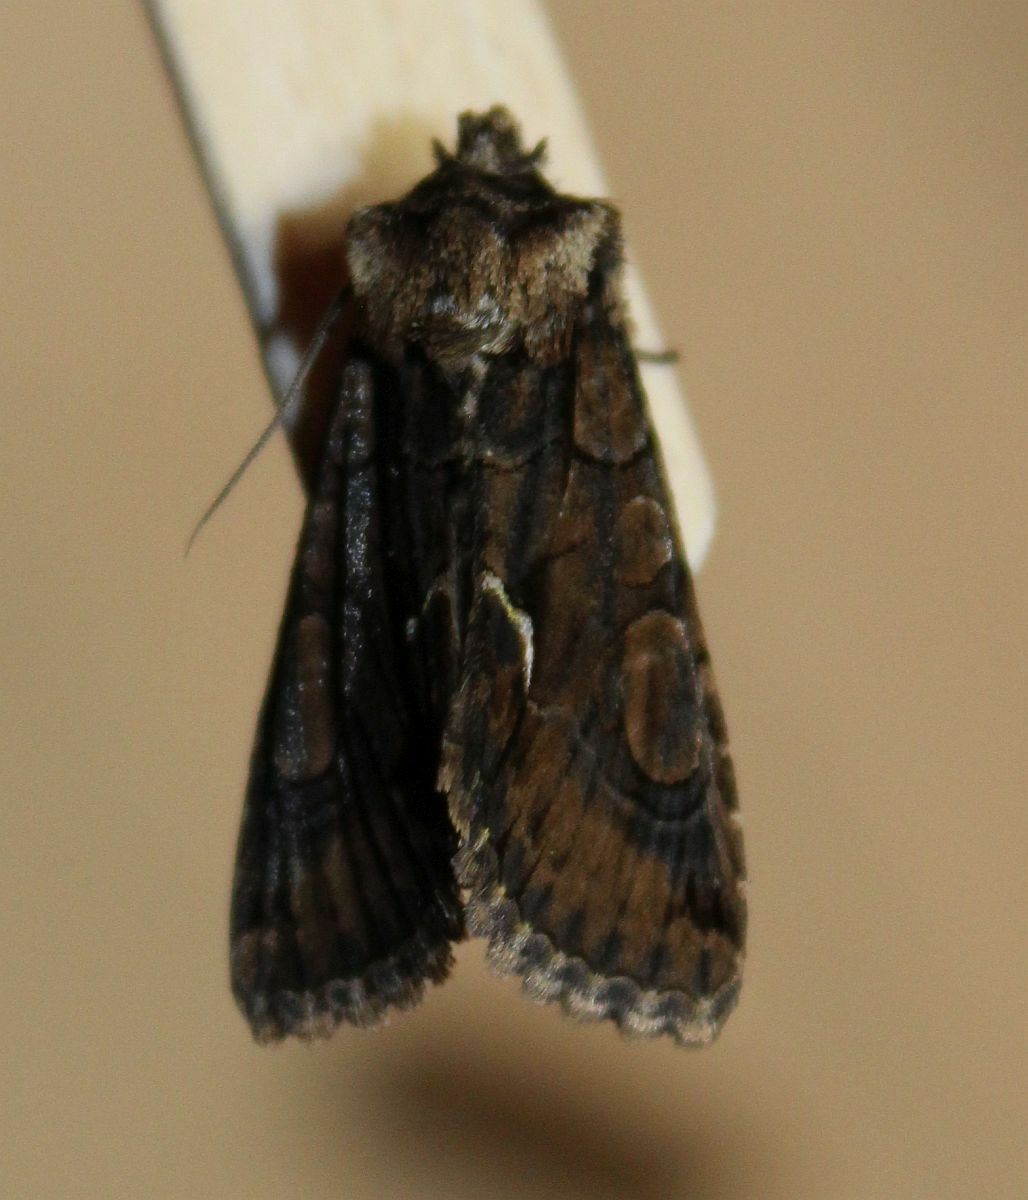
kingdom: Animalia
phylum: Arthropoda
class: Insecta
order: Lepidoptera
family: Noctuidae
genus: Allophyes
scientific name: Allophyes oxyacanthae
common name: Green-brindled crescent
